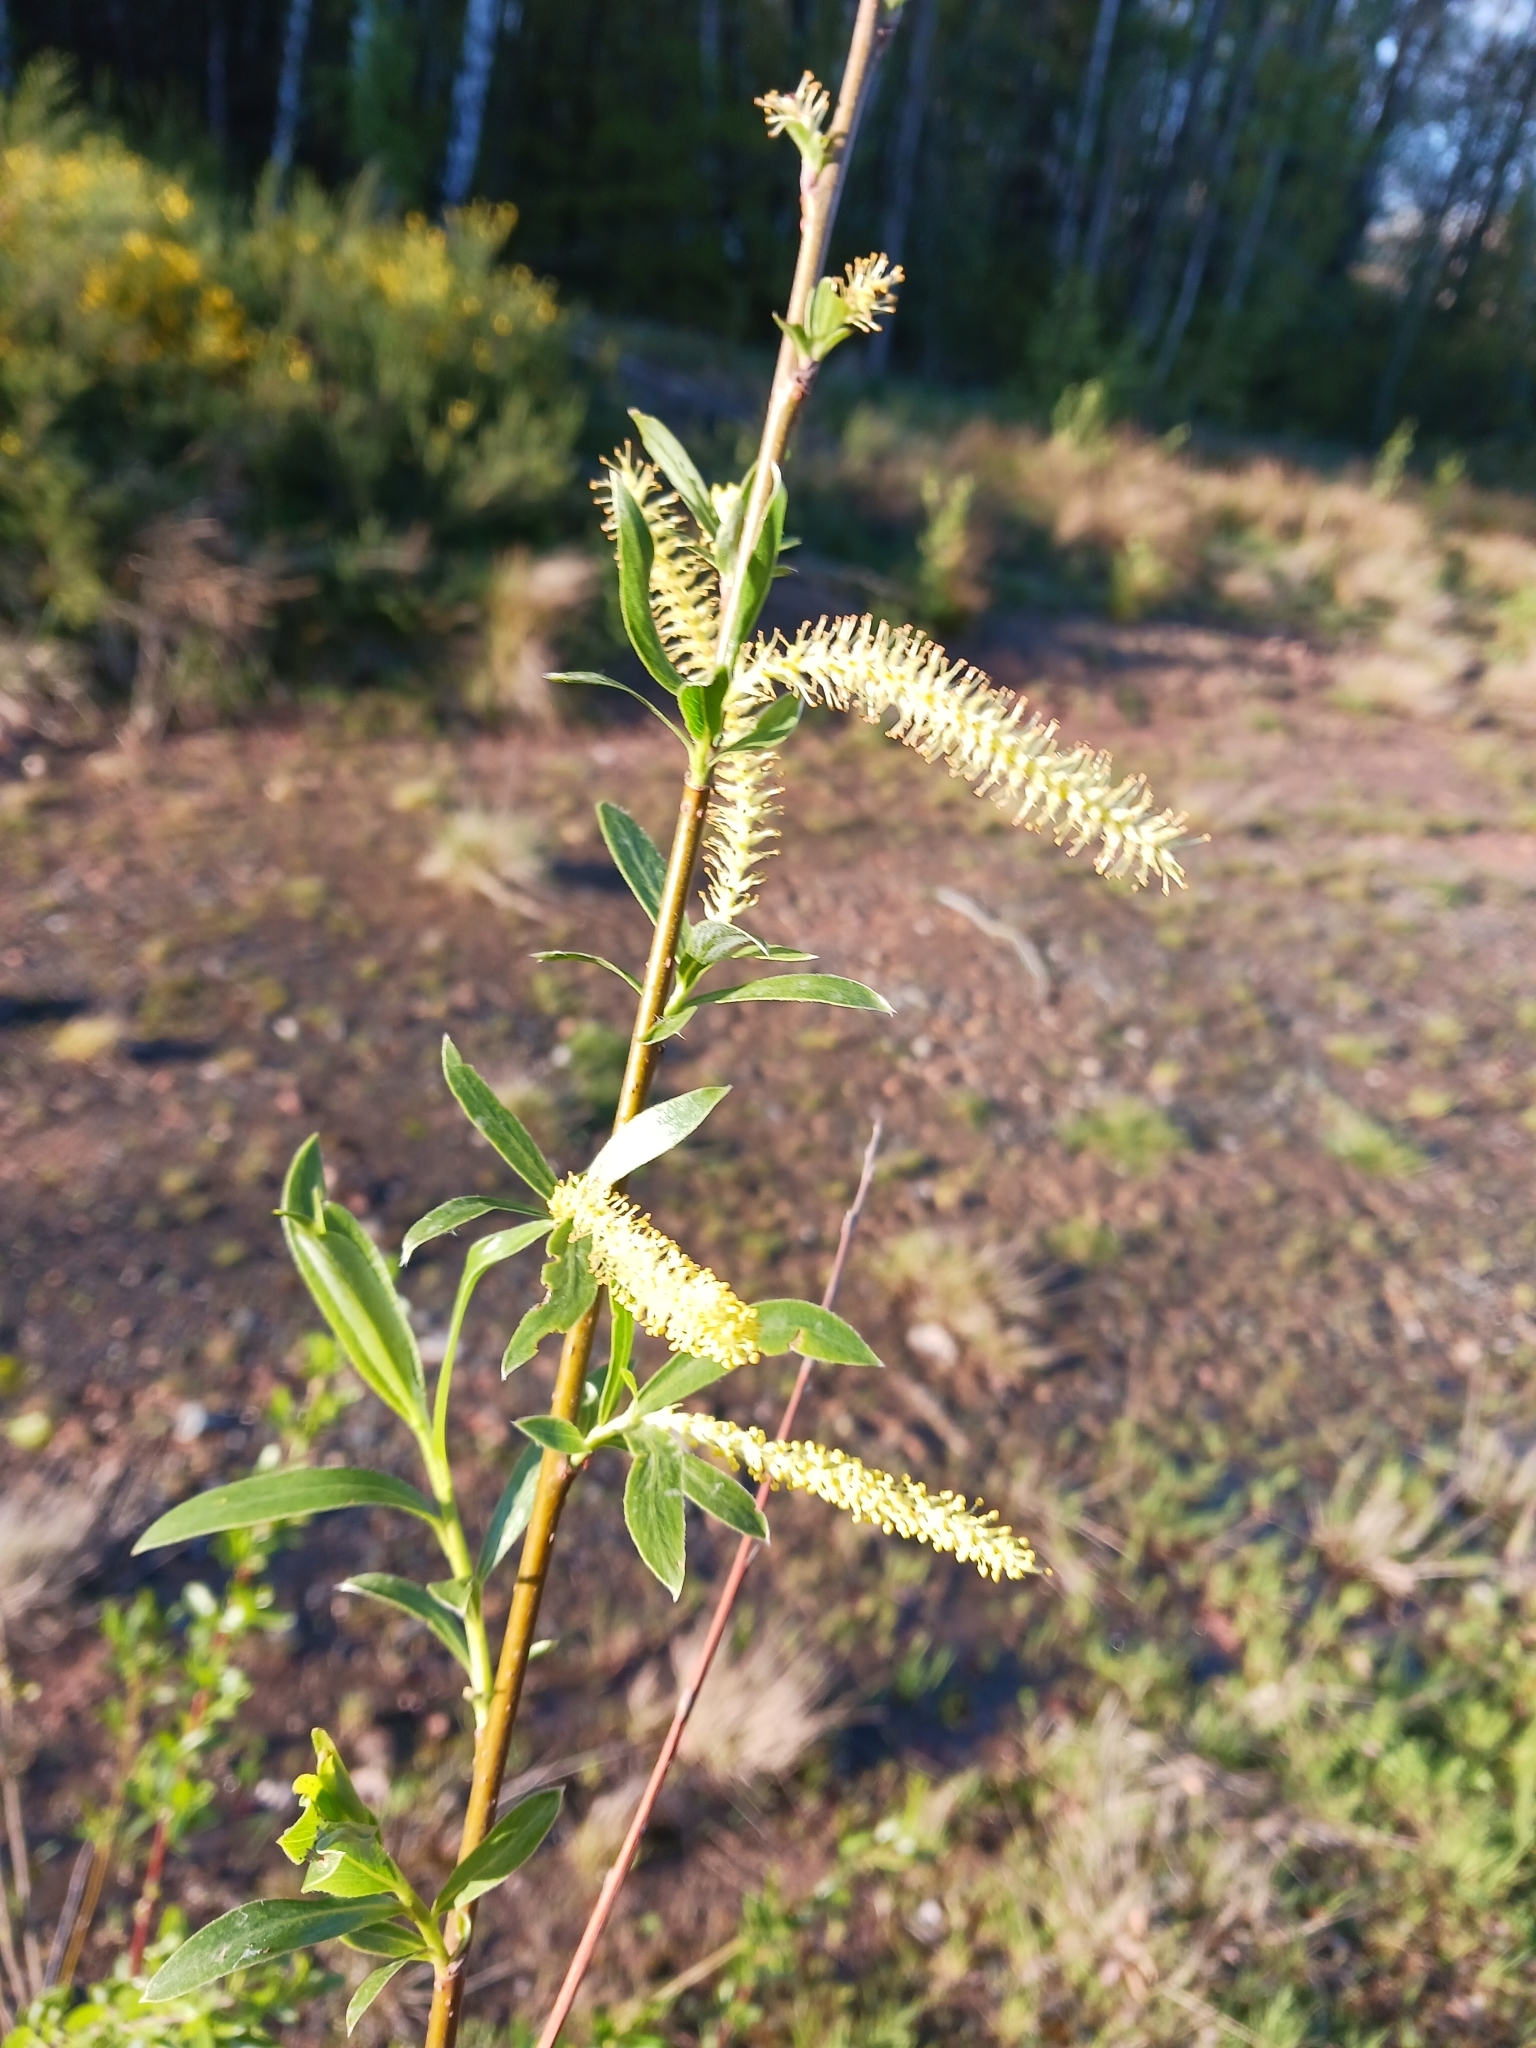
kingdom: Plantae
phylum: Tracheophyta
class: Magnoliopsida
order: Malpighiales
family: Salicaceae
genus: Salix
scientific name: Salix triandra
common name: Almond willow
